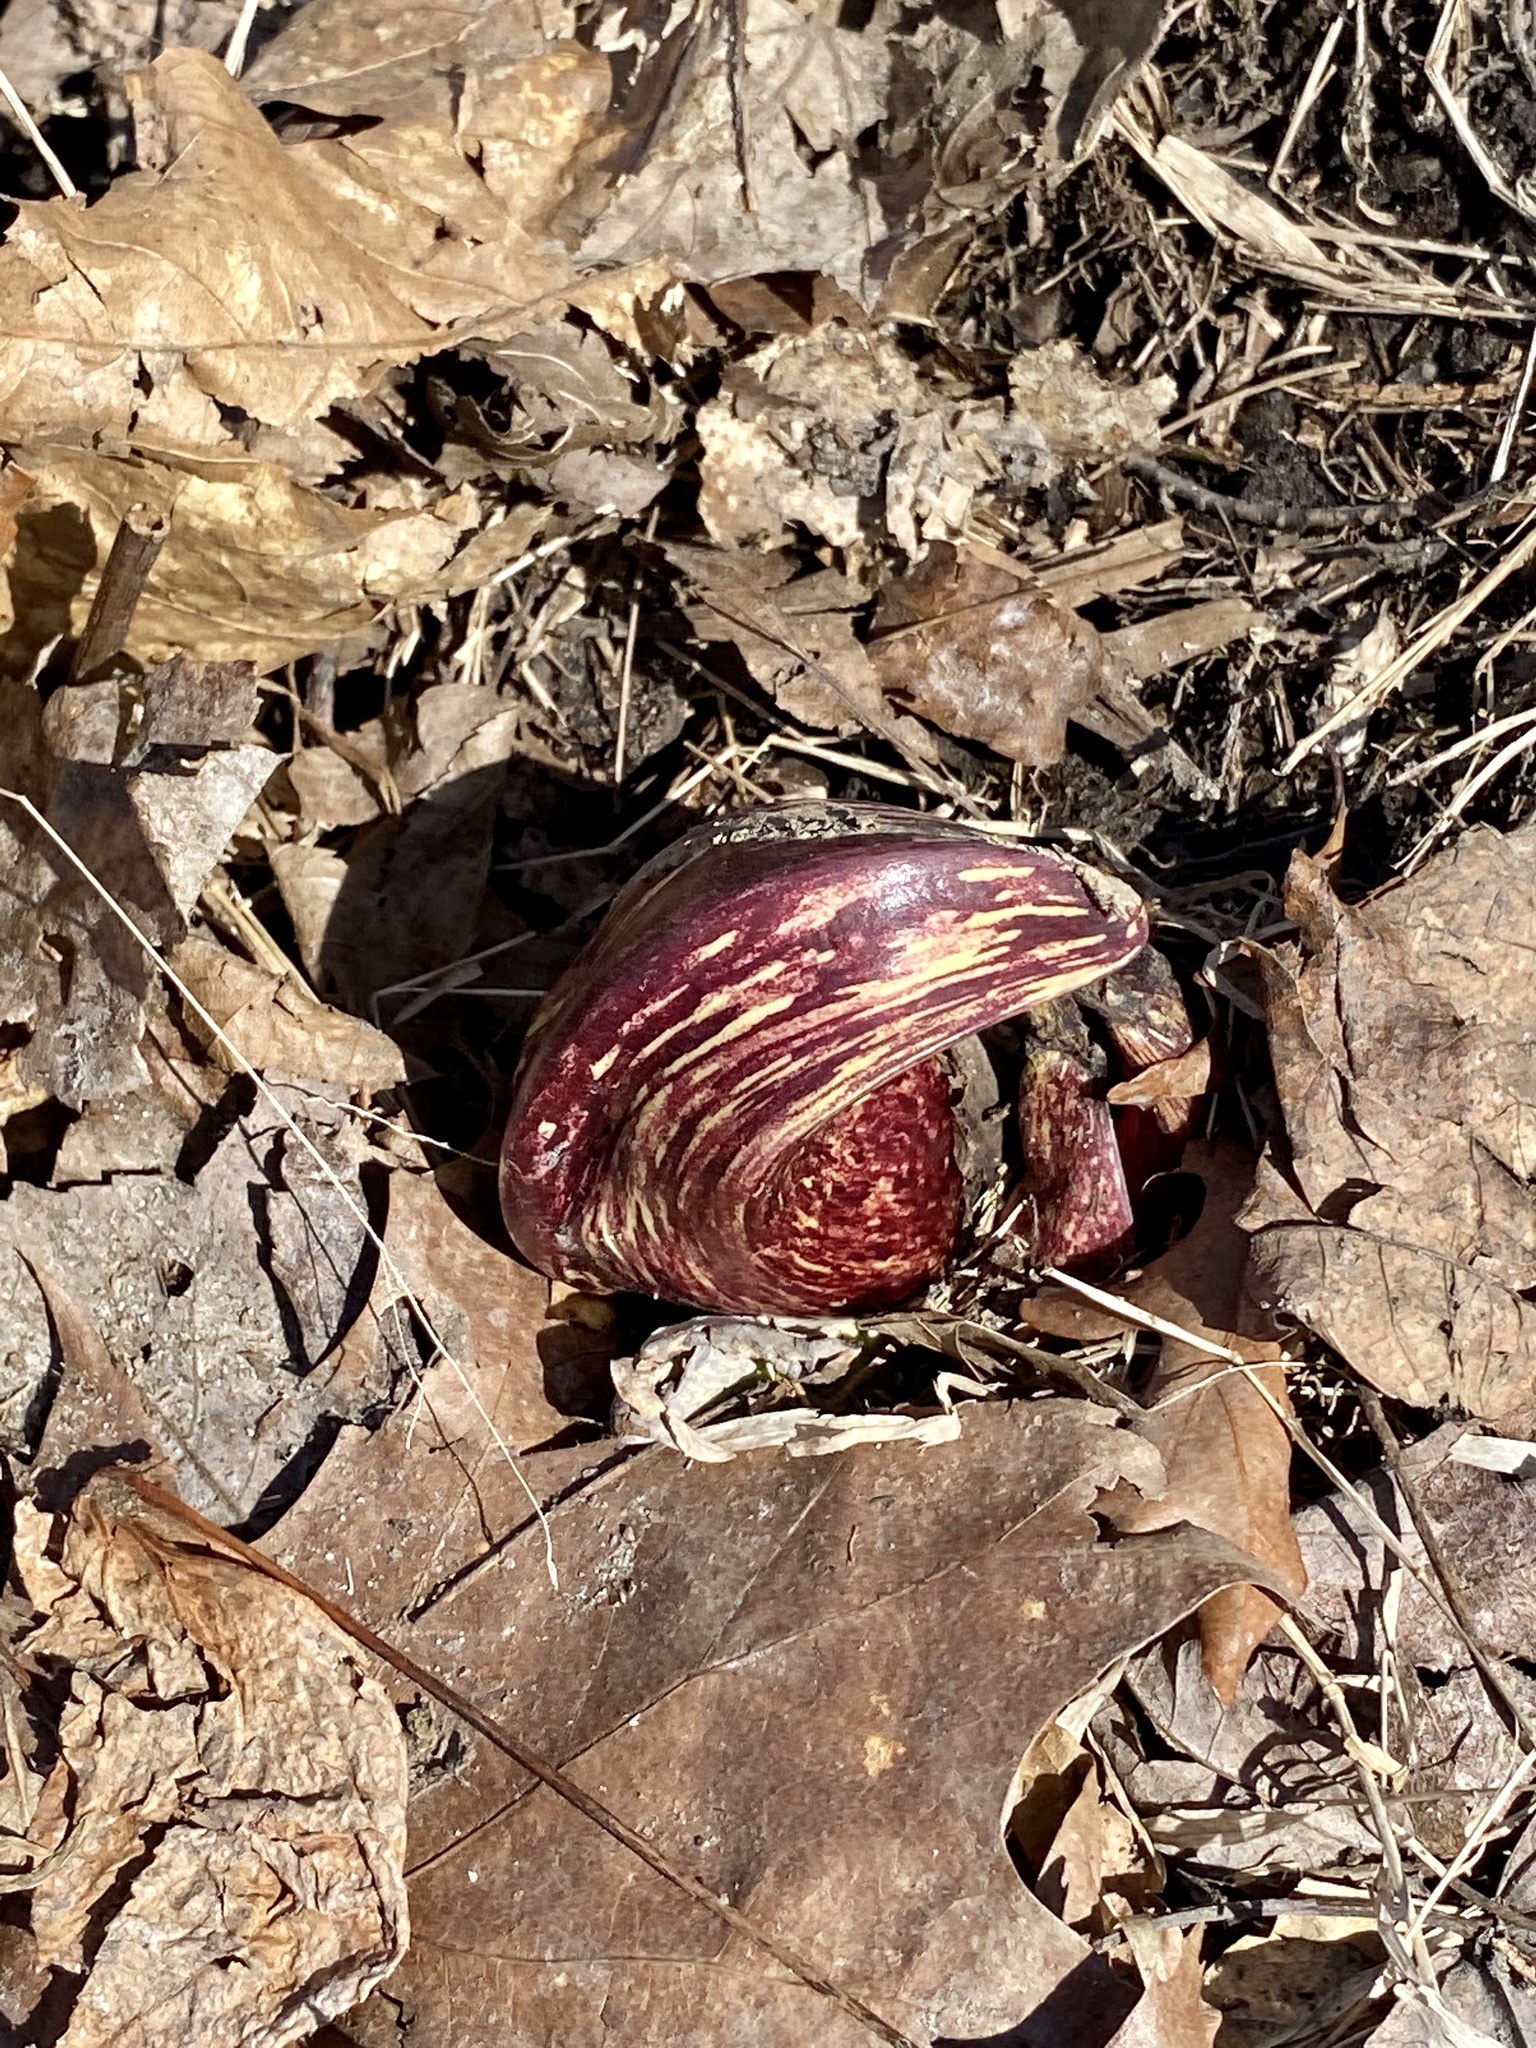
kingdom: Plantae
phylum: Tracheophyta
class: Liliopsida
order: Alismatales
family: Araceae
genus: Symplocarpus
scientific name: Symplocarpus foetidus
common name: Eastern skunk cabbage
